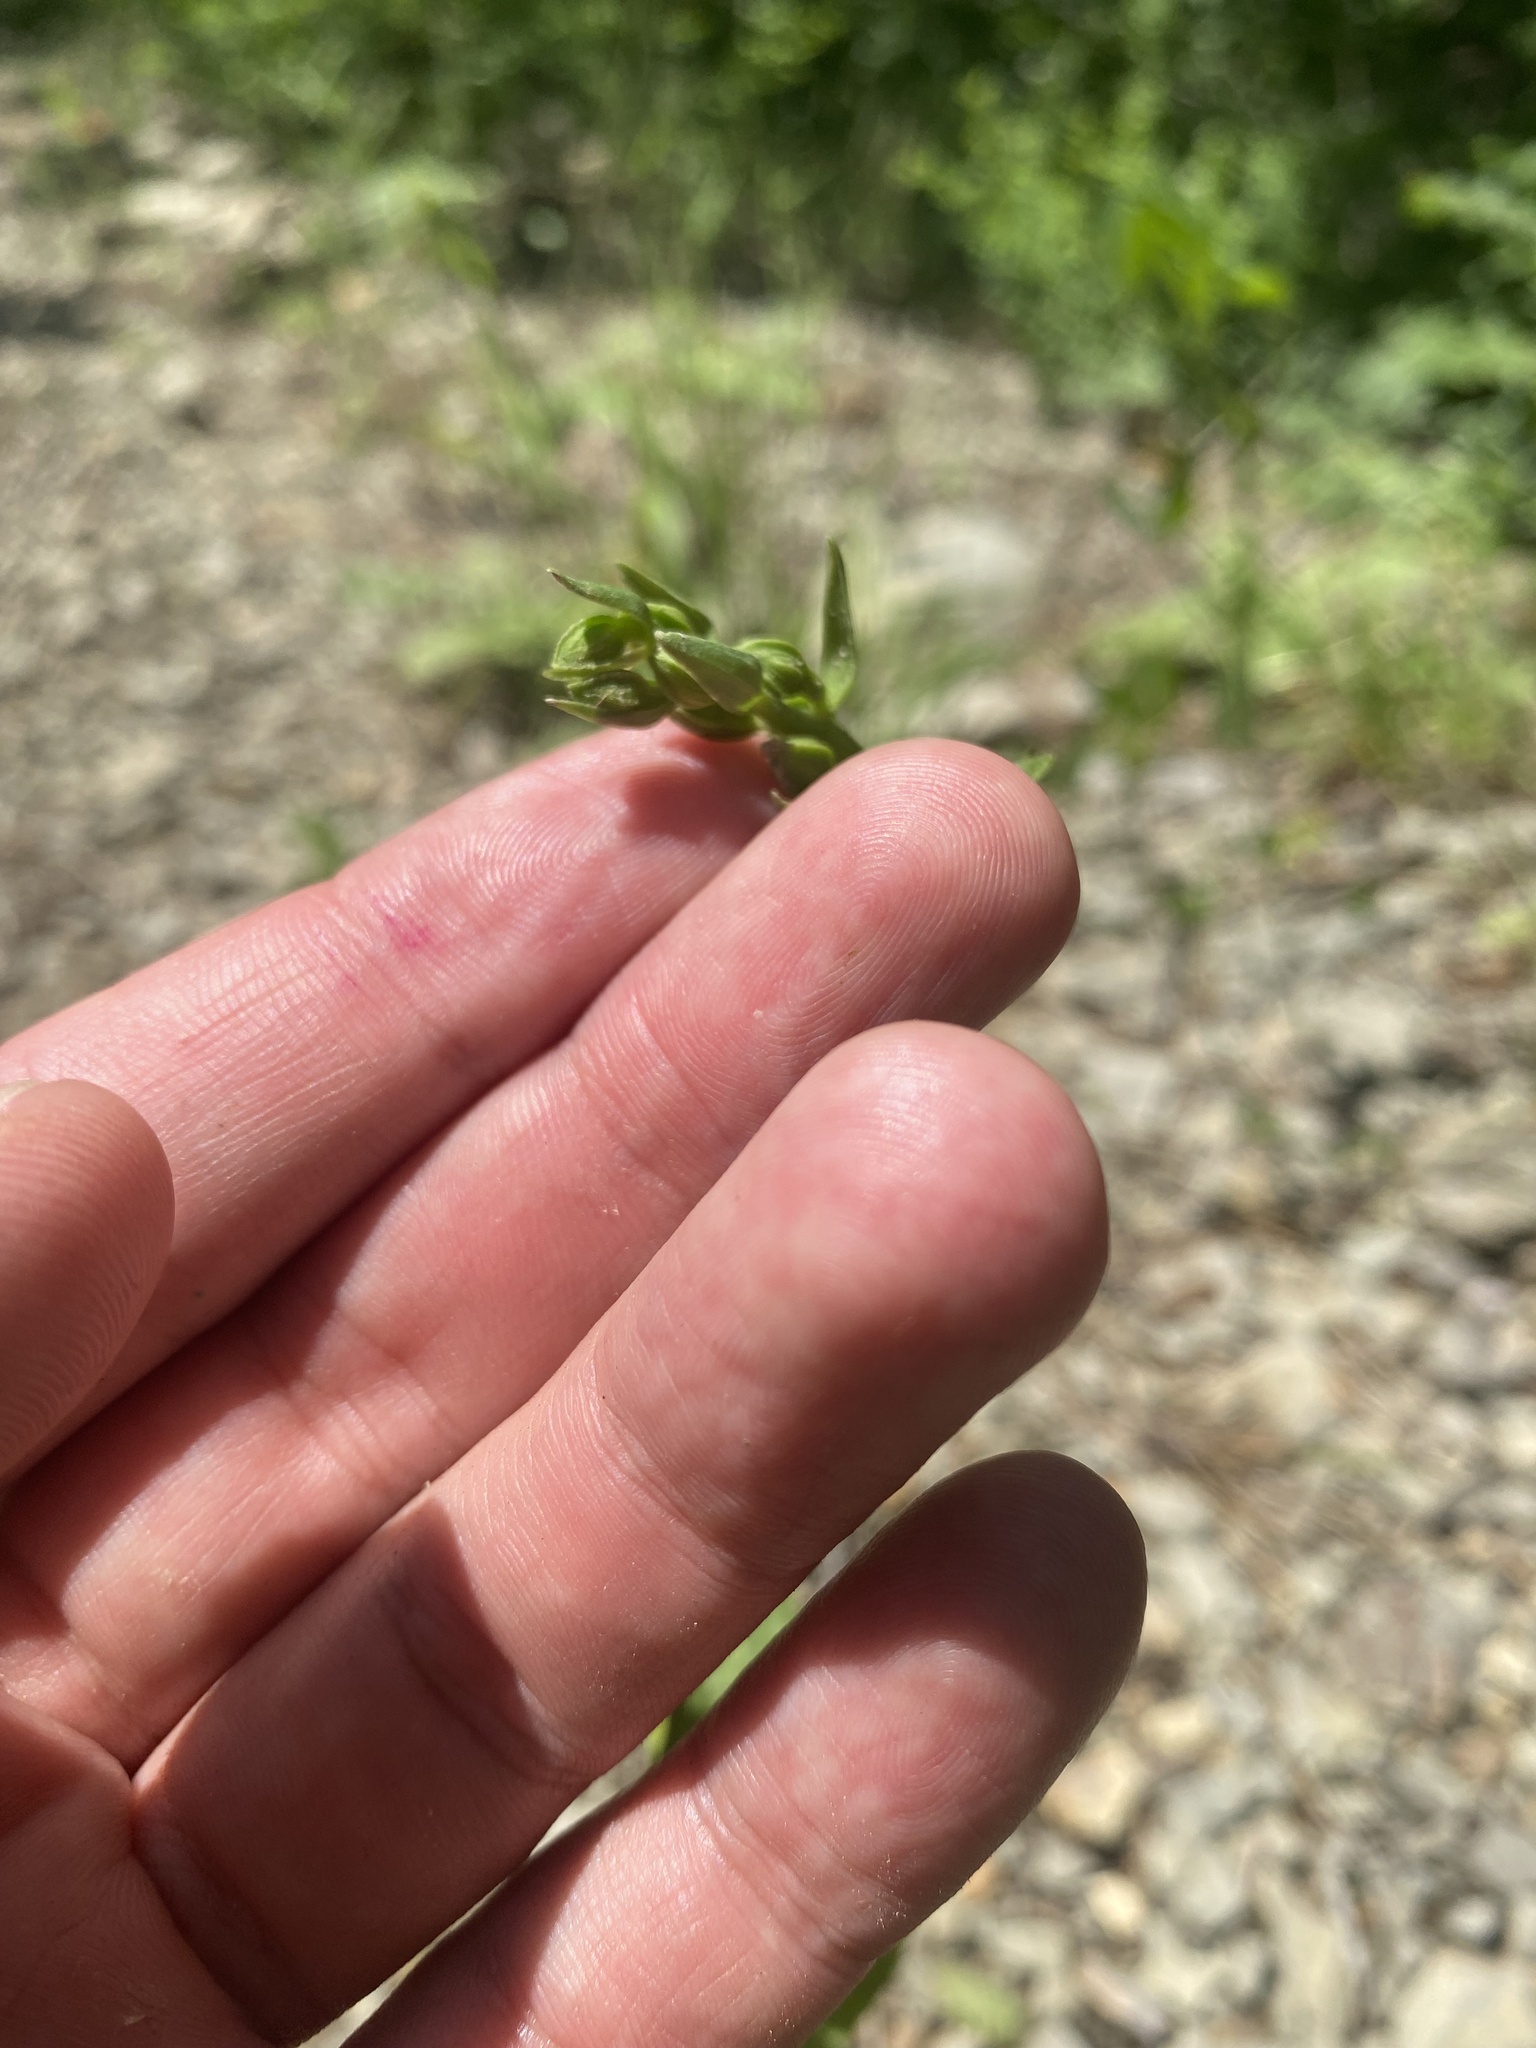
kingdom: Plantae
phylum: Tracheophyta
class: Liliopsida
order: Asparagales
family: Orchidaceae
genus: Epipactis
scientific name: Epipactis helleborine
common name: Broad-leaved helleborine
